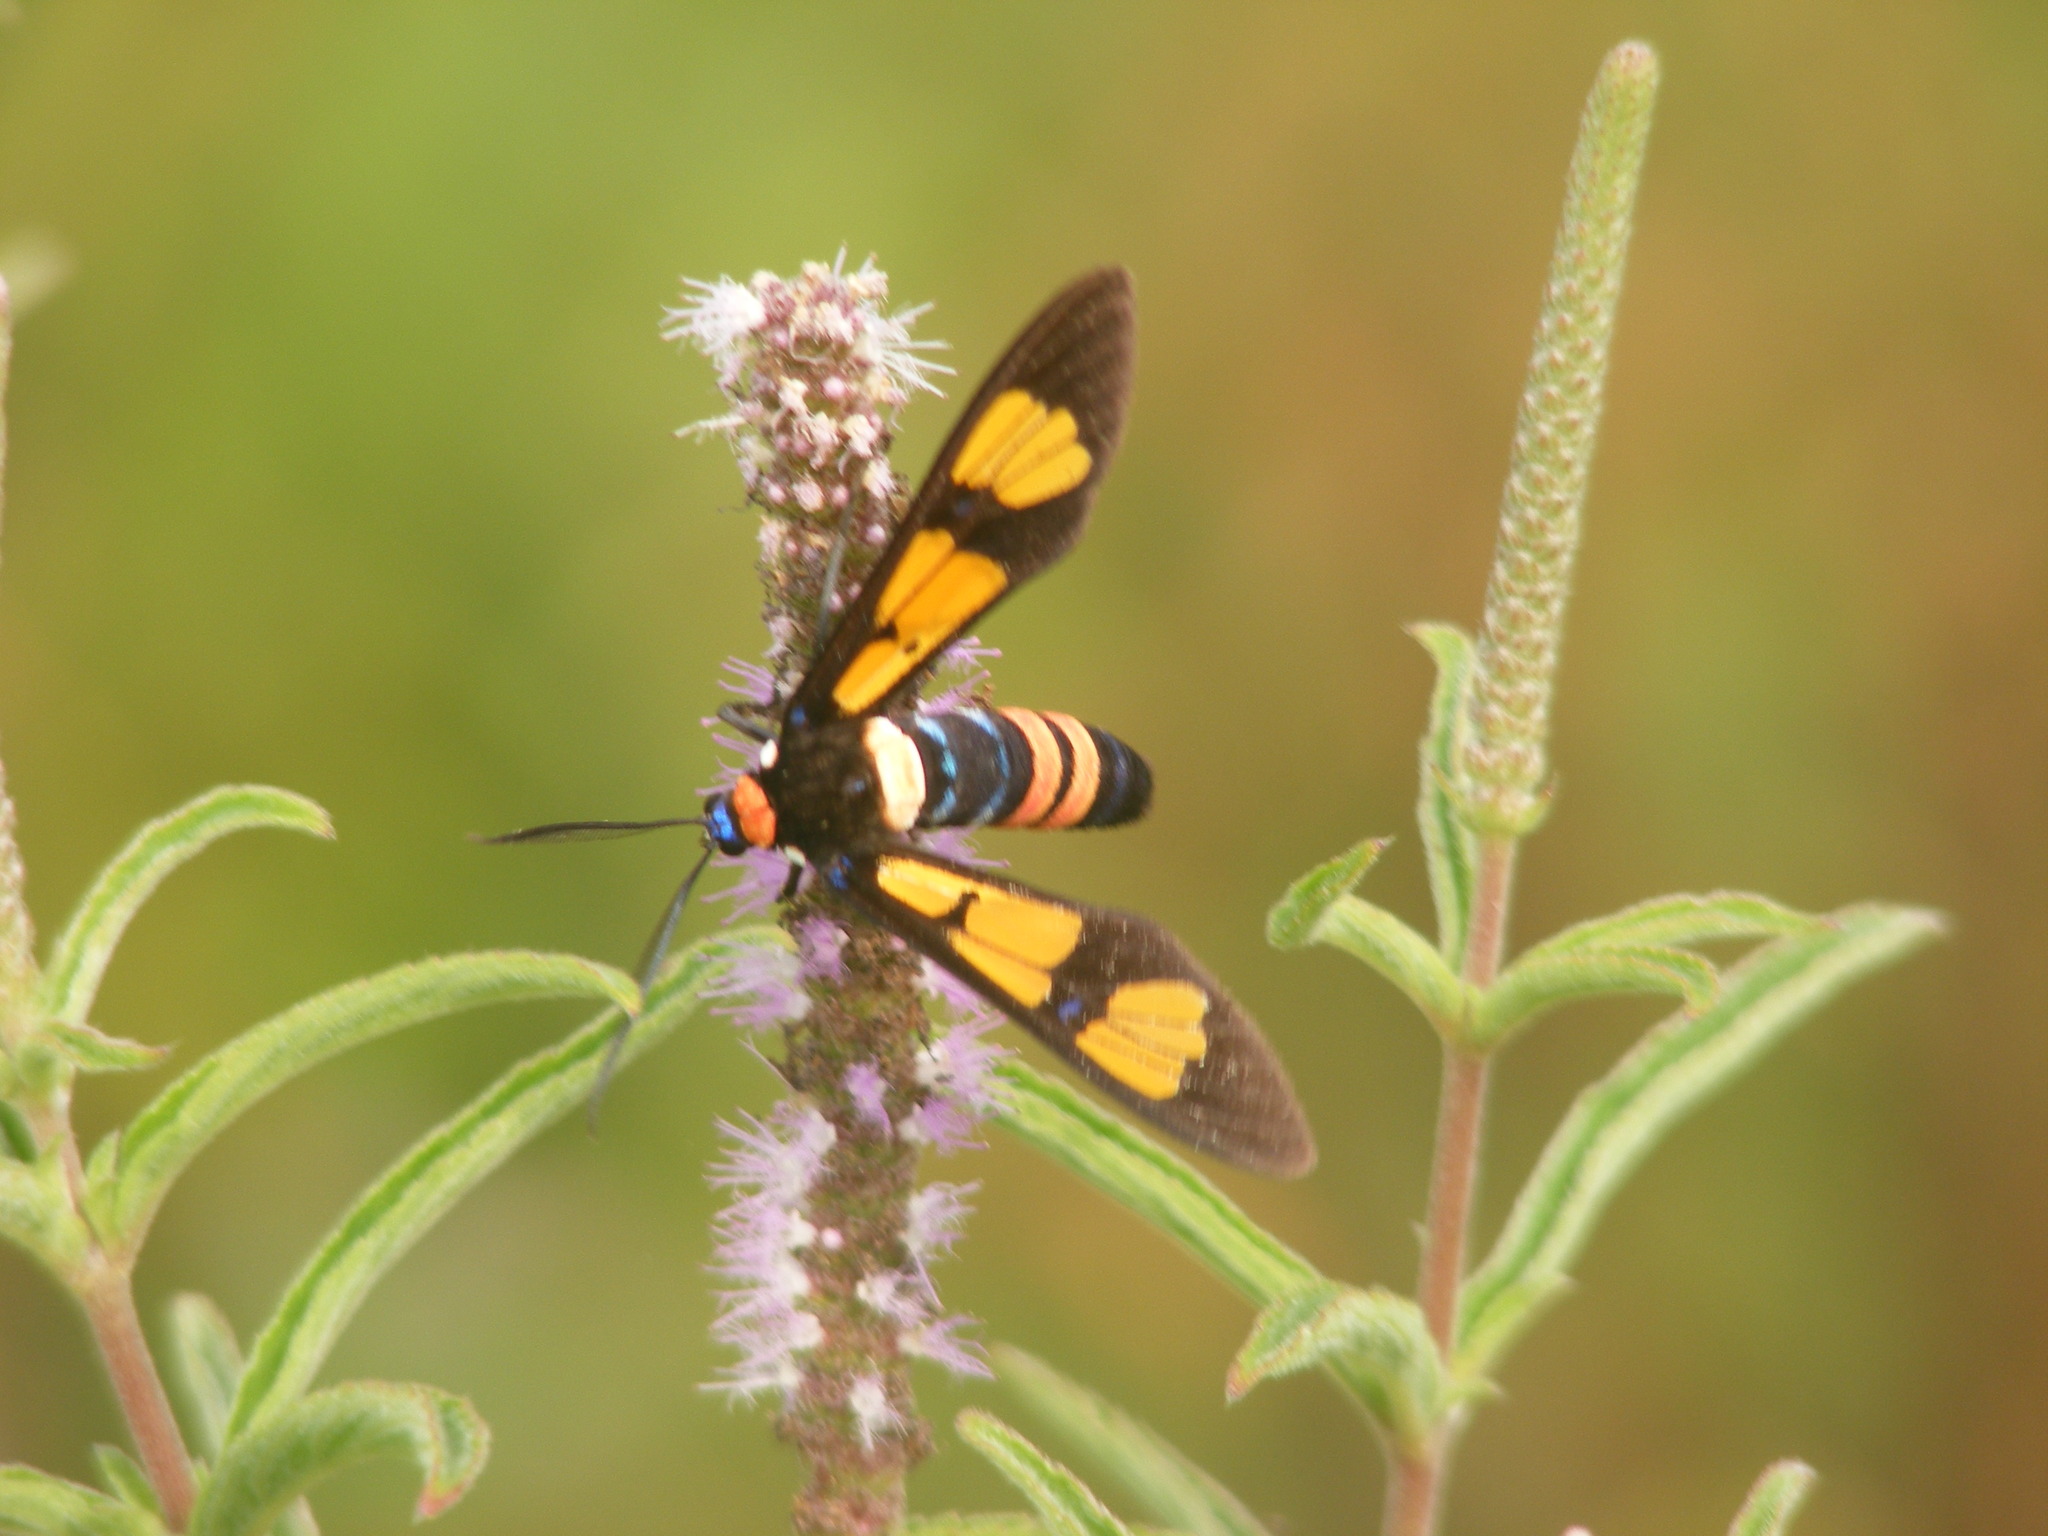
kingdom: Animalia
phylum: Arthropoda
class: Insecta
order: Lepidoptera
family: Erebidae
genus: Euchromia
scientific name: Euchromia polymena
